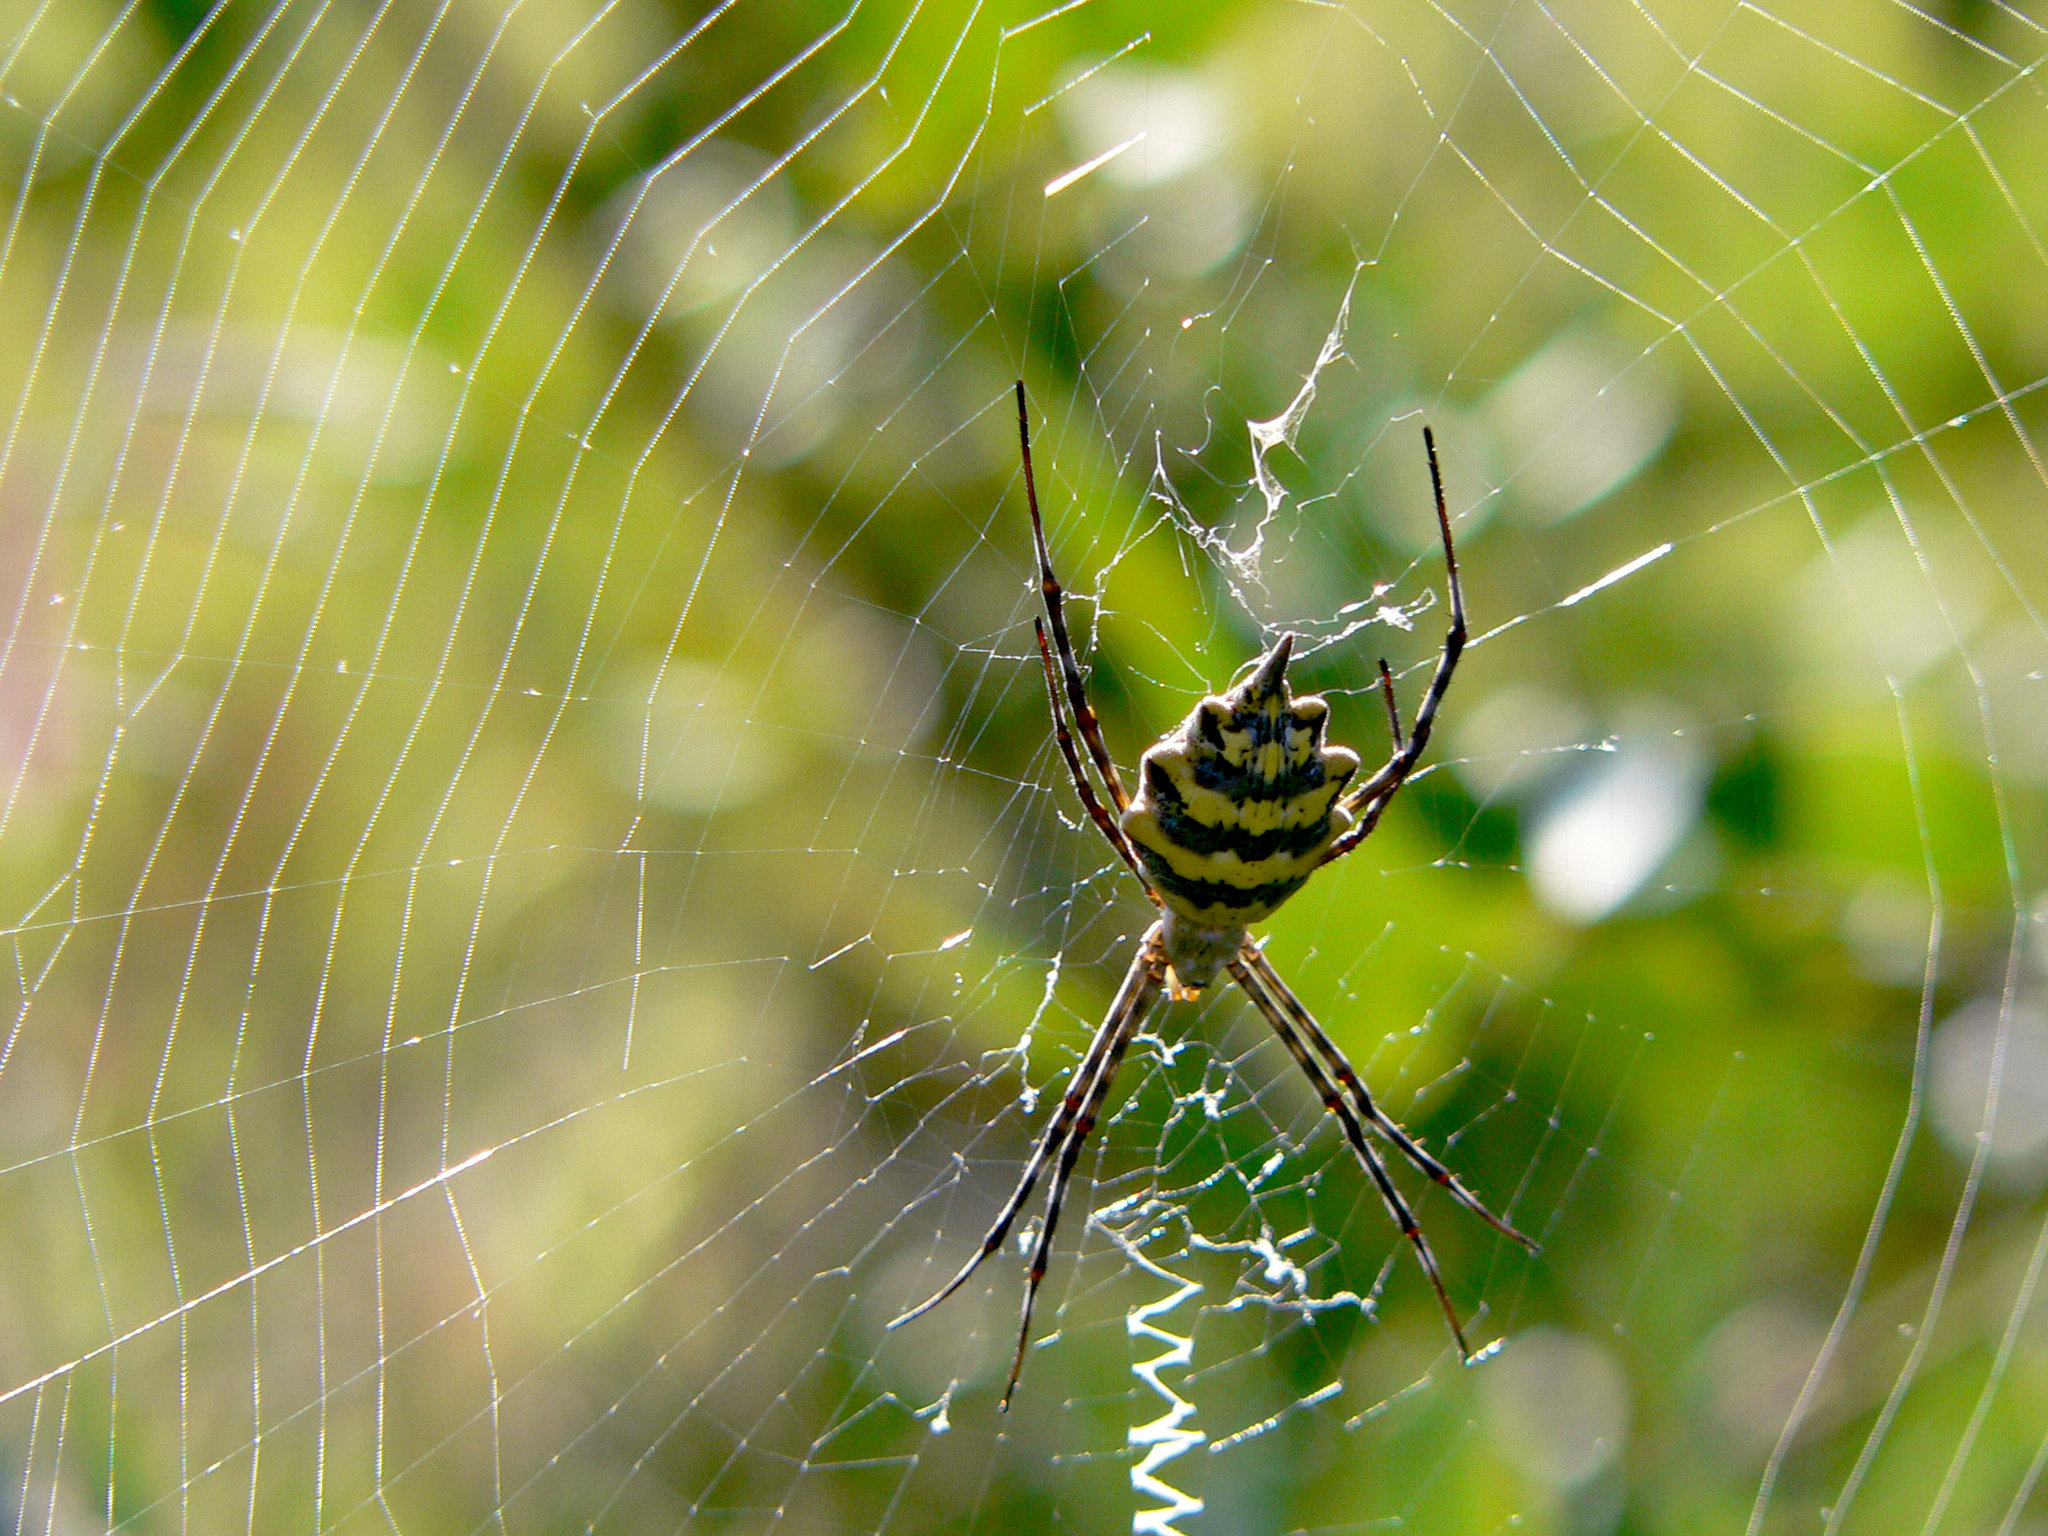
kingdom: Animalia
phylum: Arthropoda
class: Arachnida
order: Araneae
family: Araneidae
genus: Argiope
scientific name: Argiope australis
